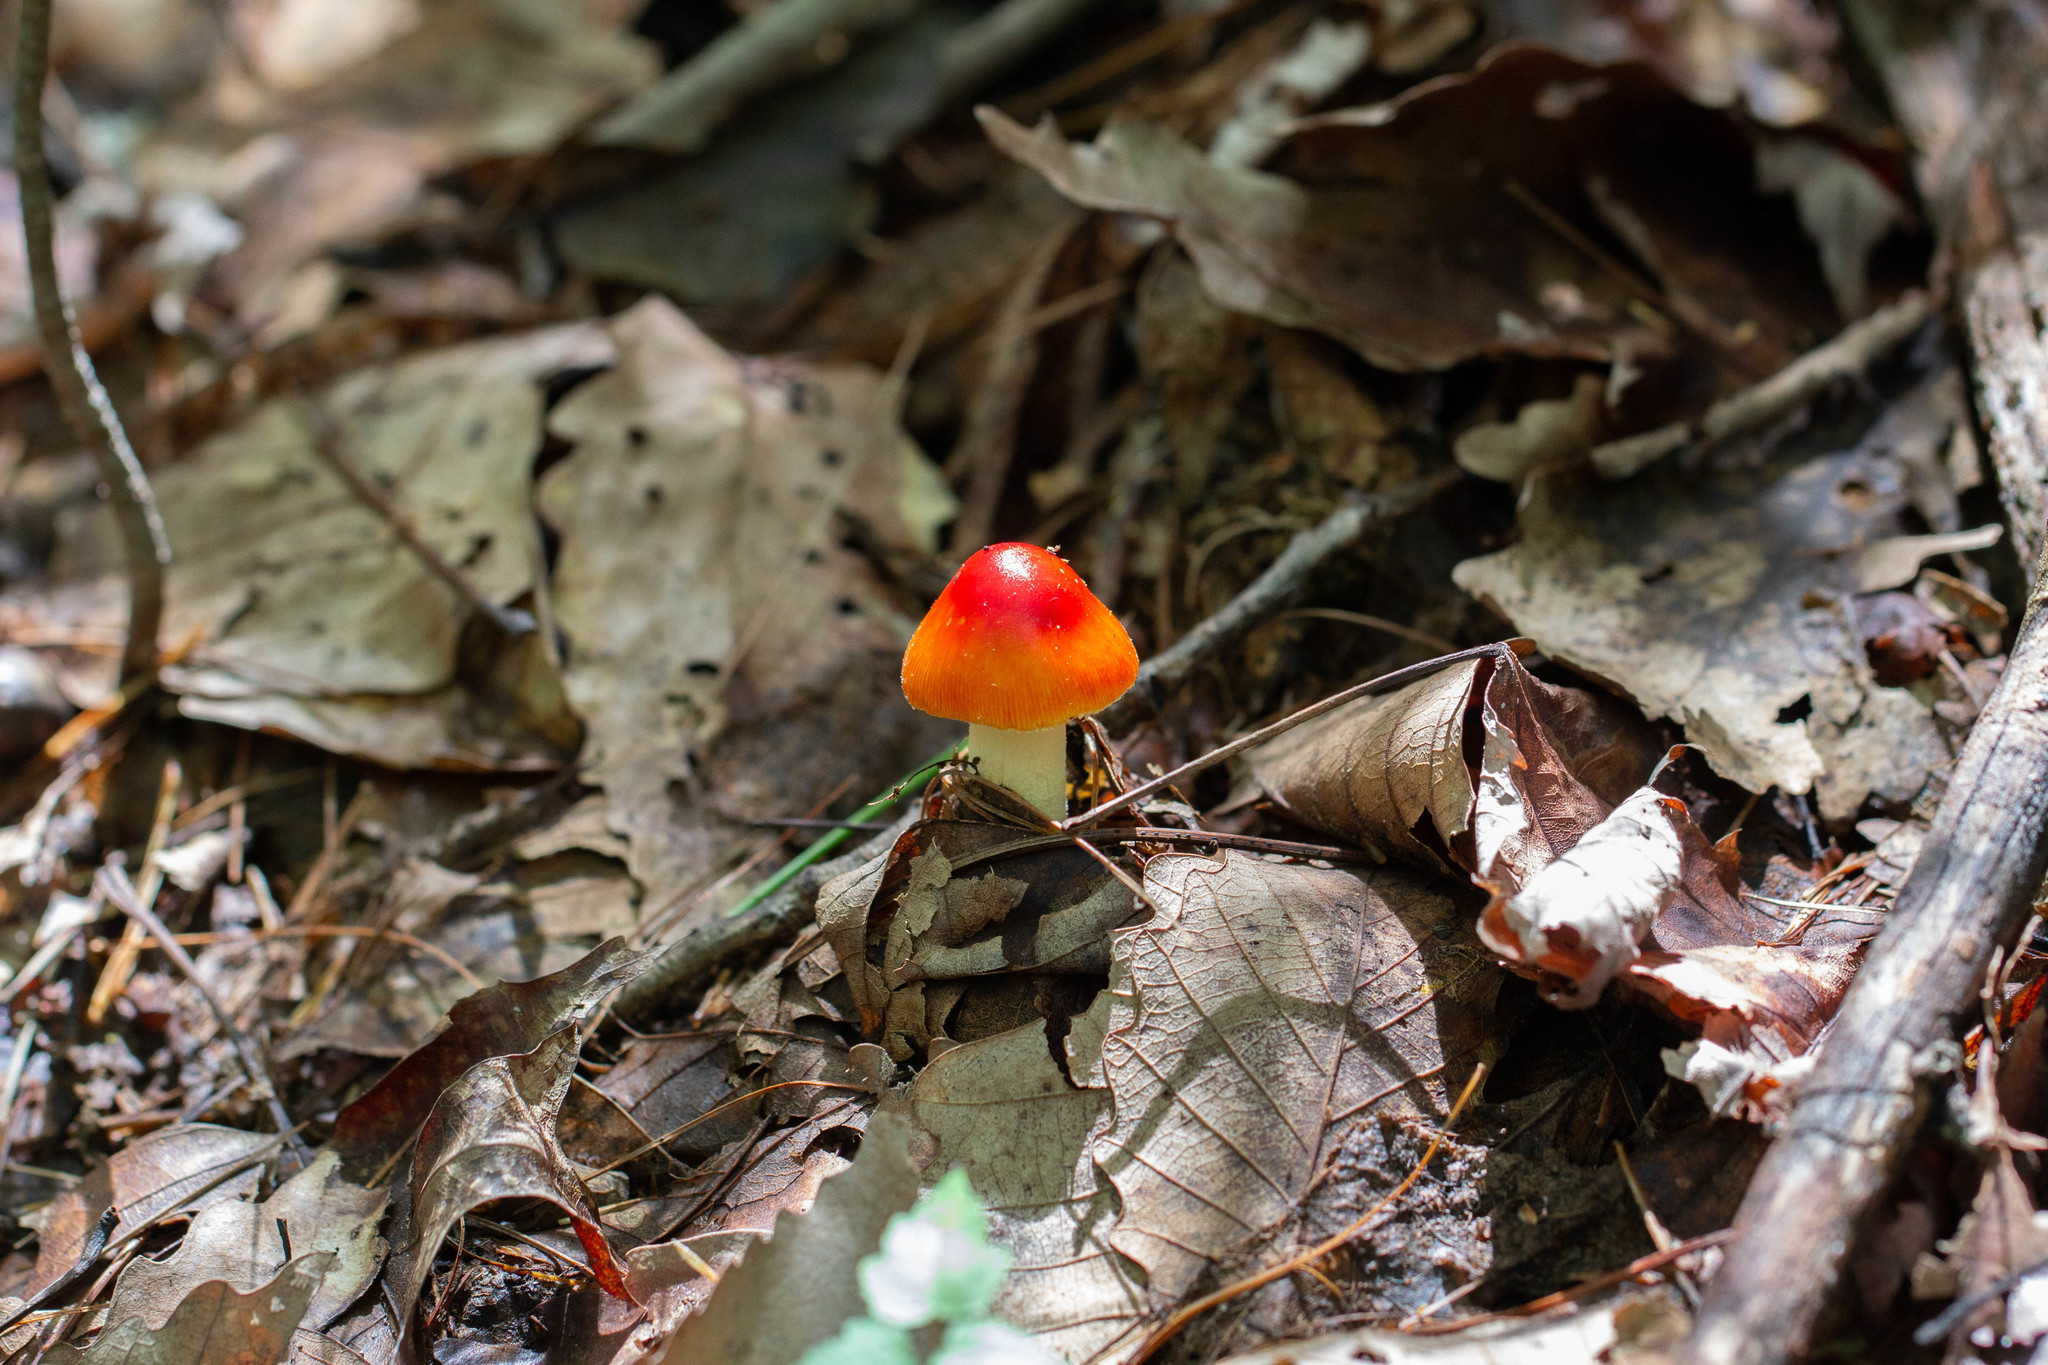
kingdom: Fungi
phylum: Basidiomycota
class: Agaricomycetes
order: Agaricales
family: Amanitaceae
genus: Amanita
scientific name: Amanita parcivolvata
